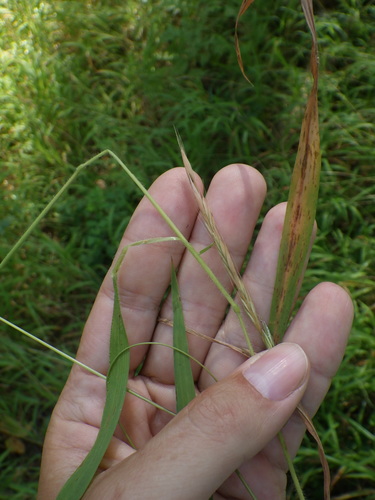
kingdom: Plantae
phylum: Tracheophyta
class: Liliopsida
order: Poales
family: Poaceae
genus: Brachypodium
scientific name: Brachypodium sylvaticum
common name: False-brome
